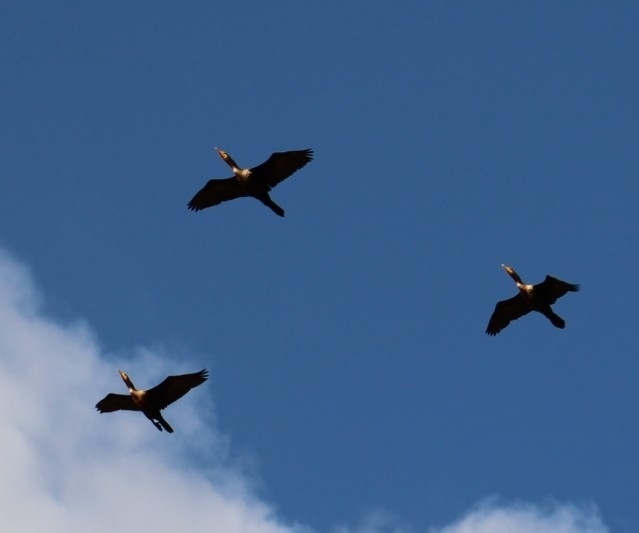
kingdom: Animalia
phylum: Chordata
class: Aves
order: Suliformes
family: Phalacrocoracidae
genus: Phalacrocorax
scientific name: Phalacrocorax auritus
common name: Double-crested cormorant
